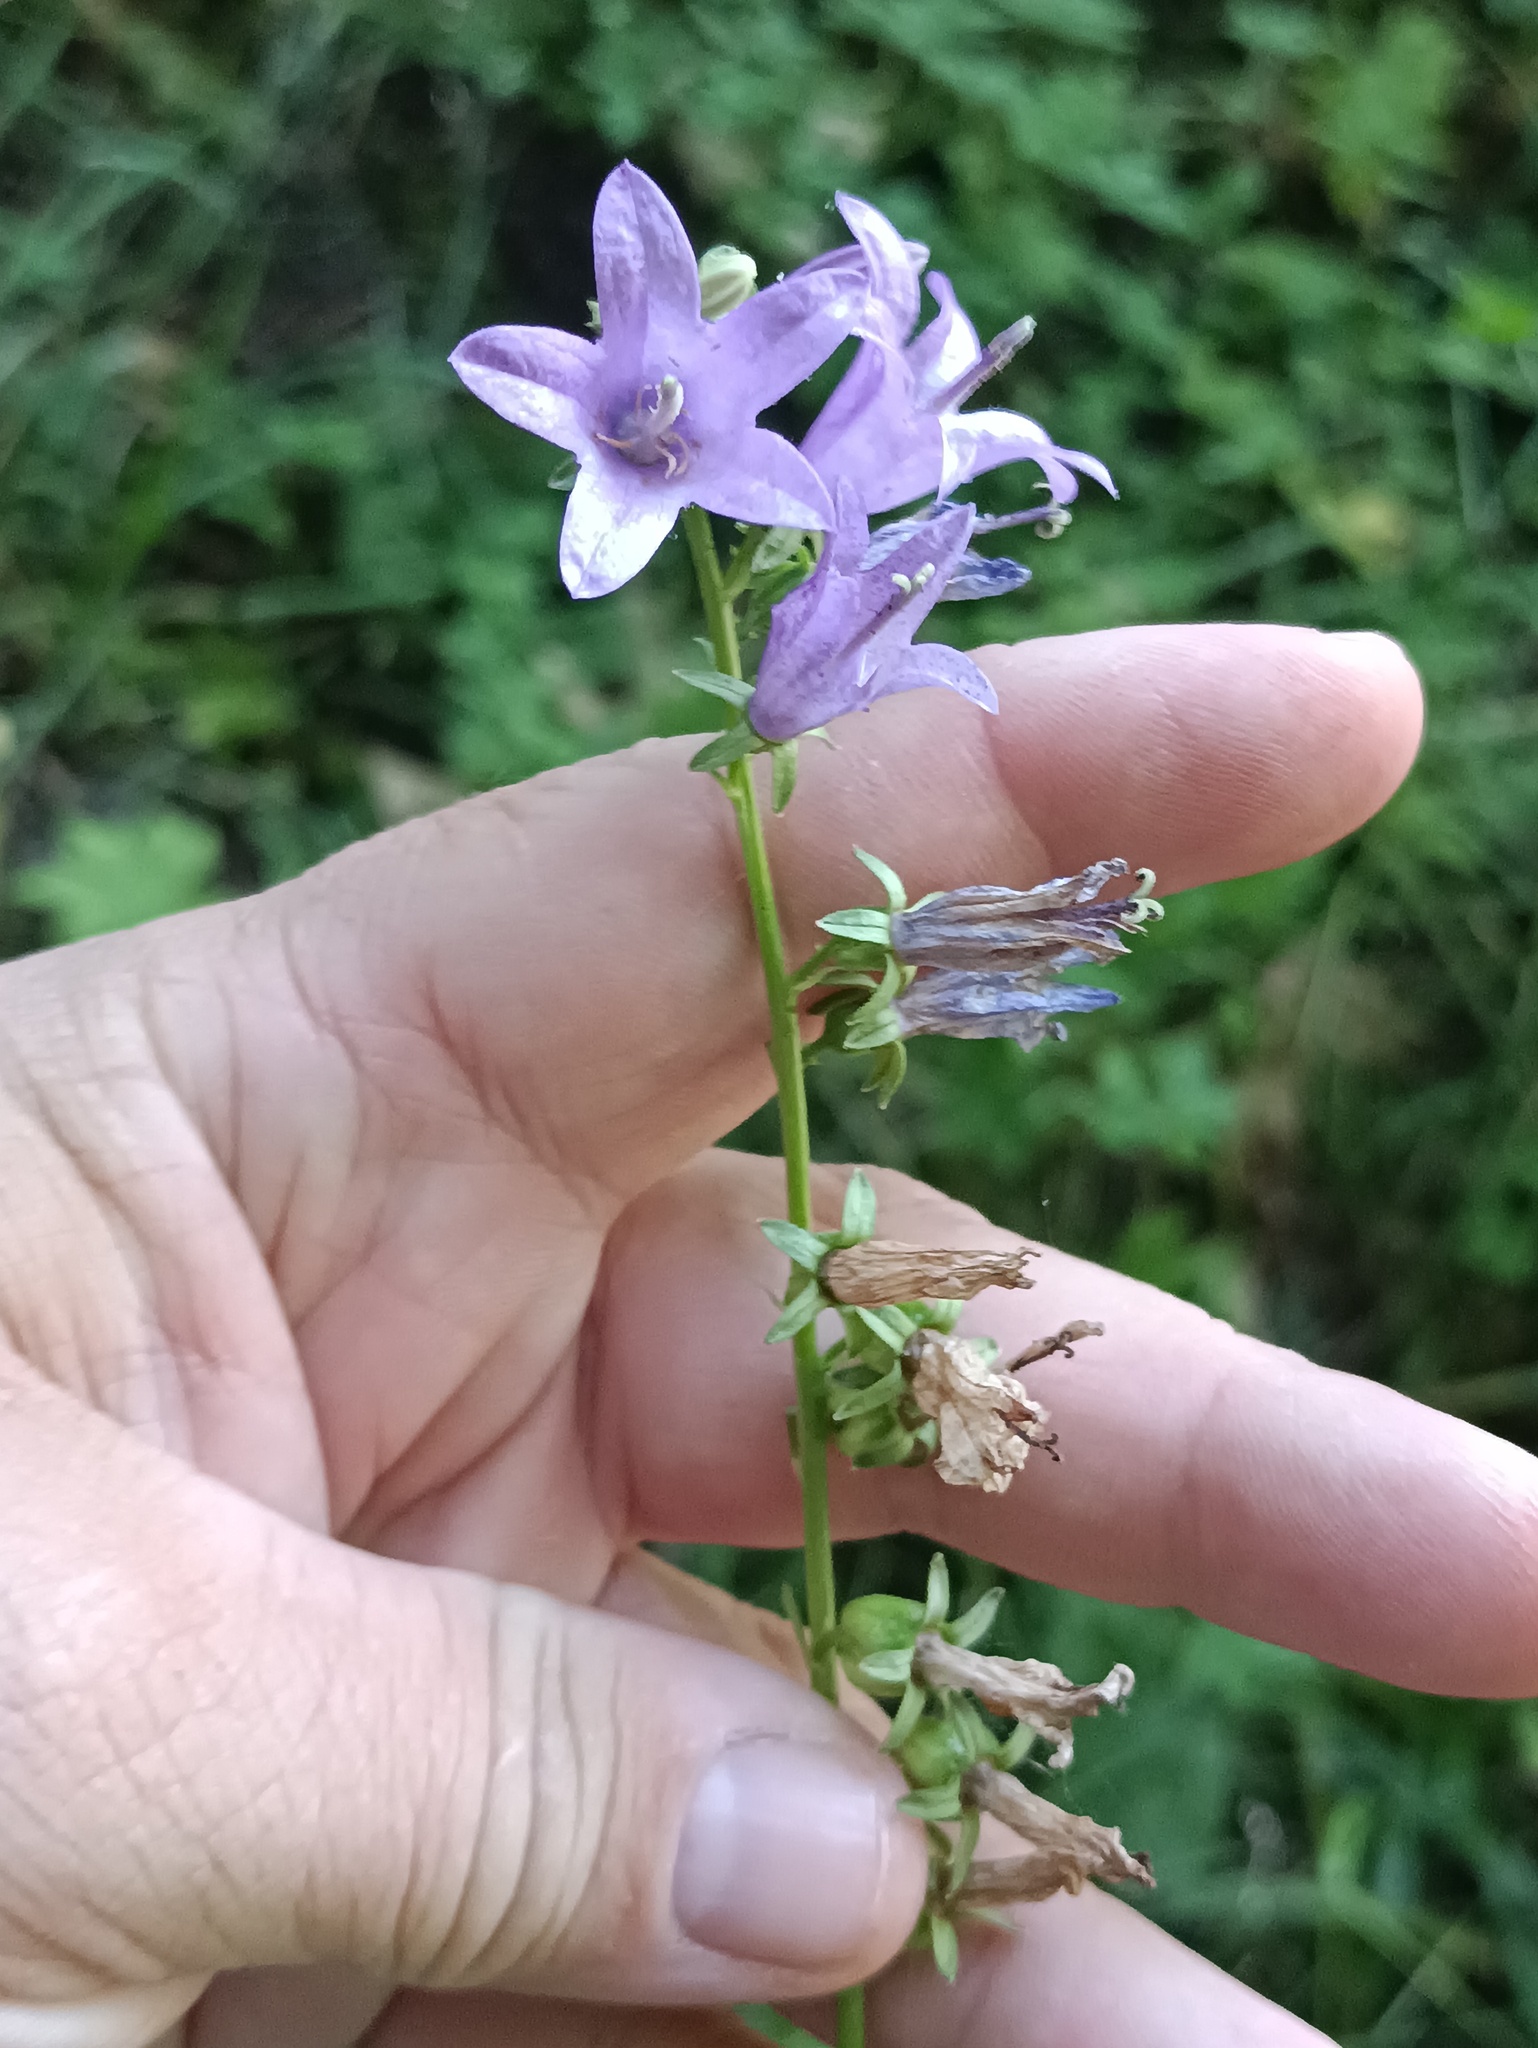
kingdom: Plantae
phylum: Tracheophyta
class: Magnoliopsida
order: Asterales
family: Campanulaceae
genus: Campanula
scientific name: Campanula rapunculoides
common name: Creeping bellflower
